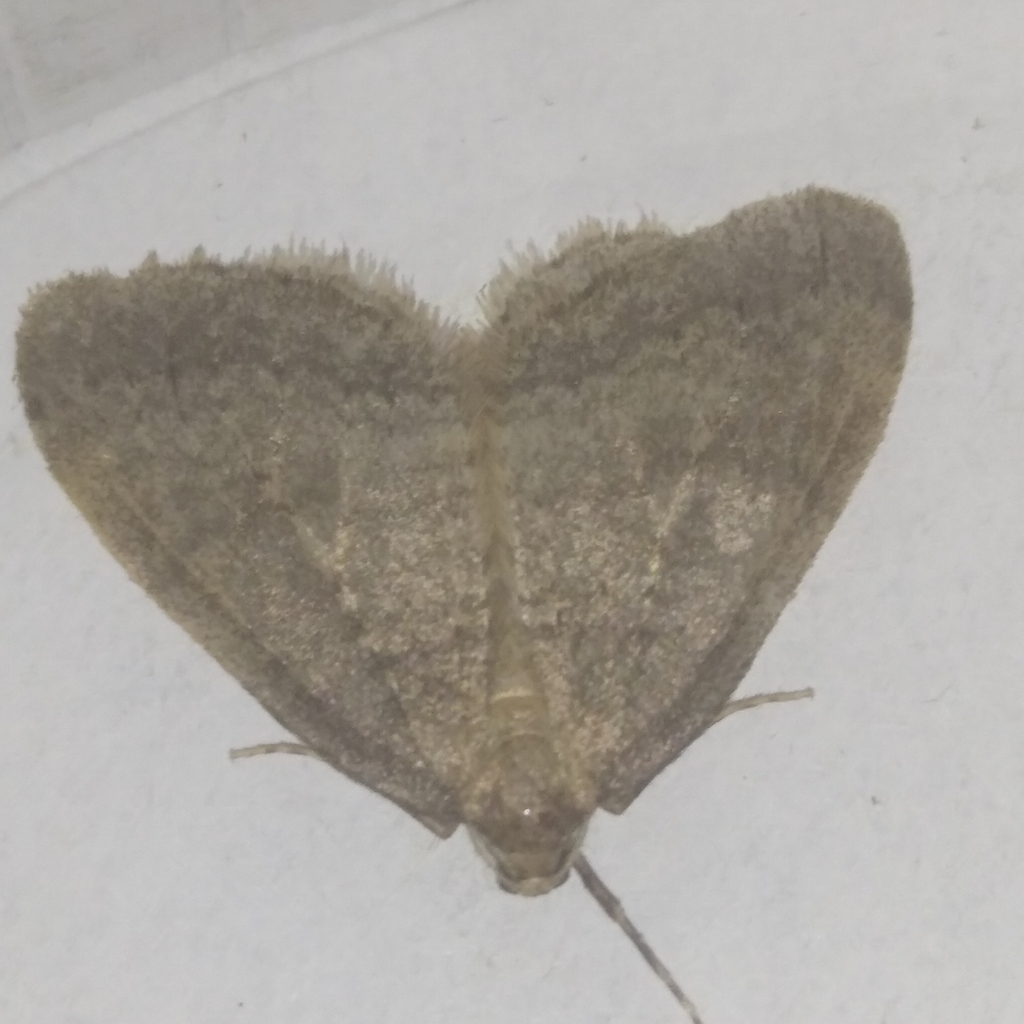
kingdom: Animalia
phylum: Arthropoda
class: Insecta
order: Lepidoptera
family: Geometridae
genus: Operophtera
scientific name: Operophtera brumata
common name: Winter moth
